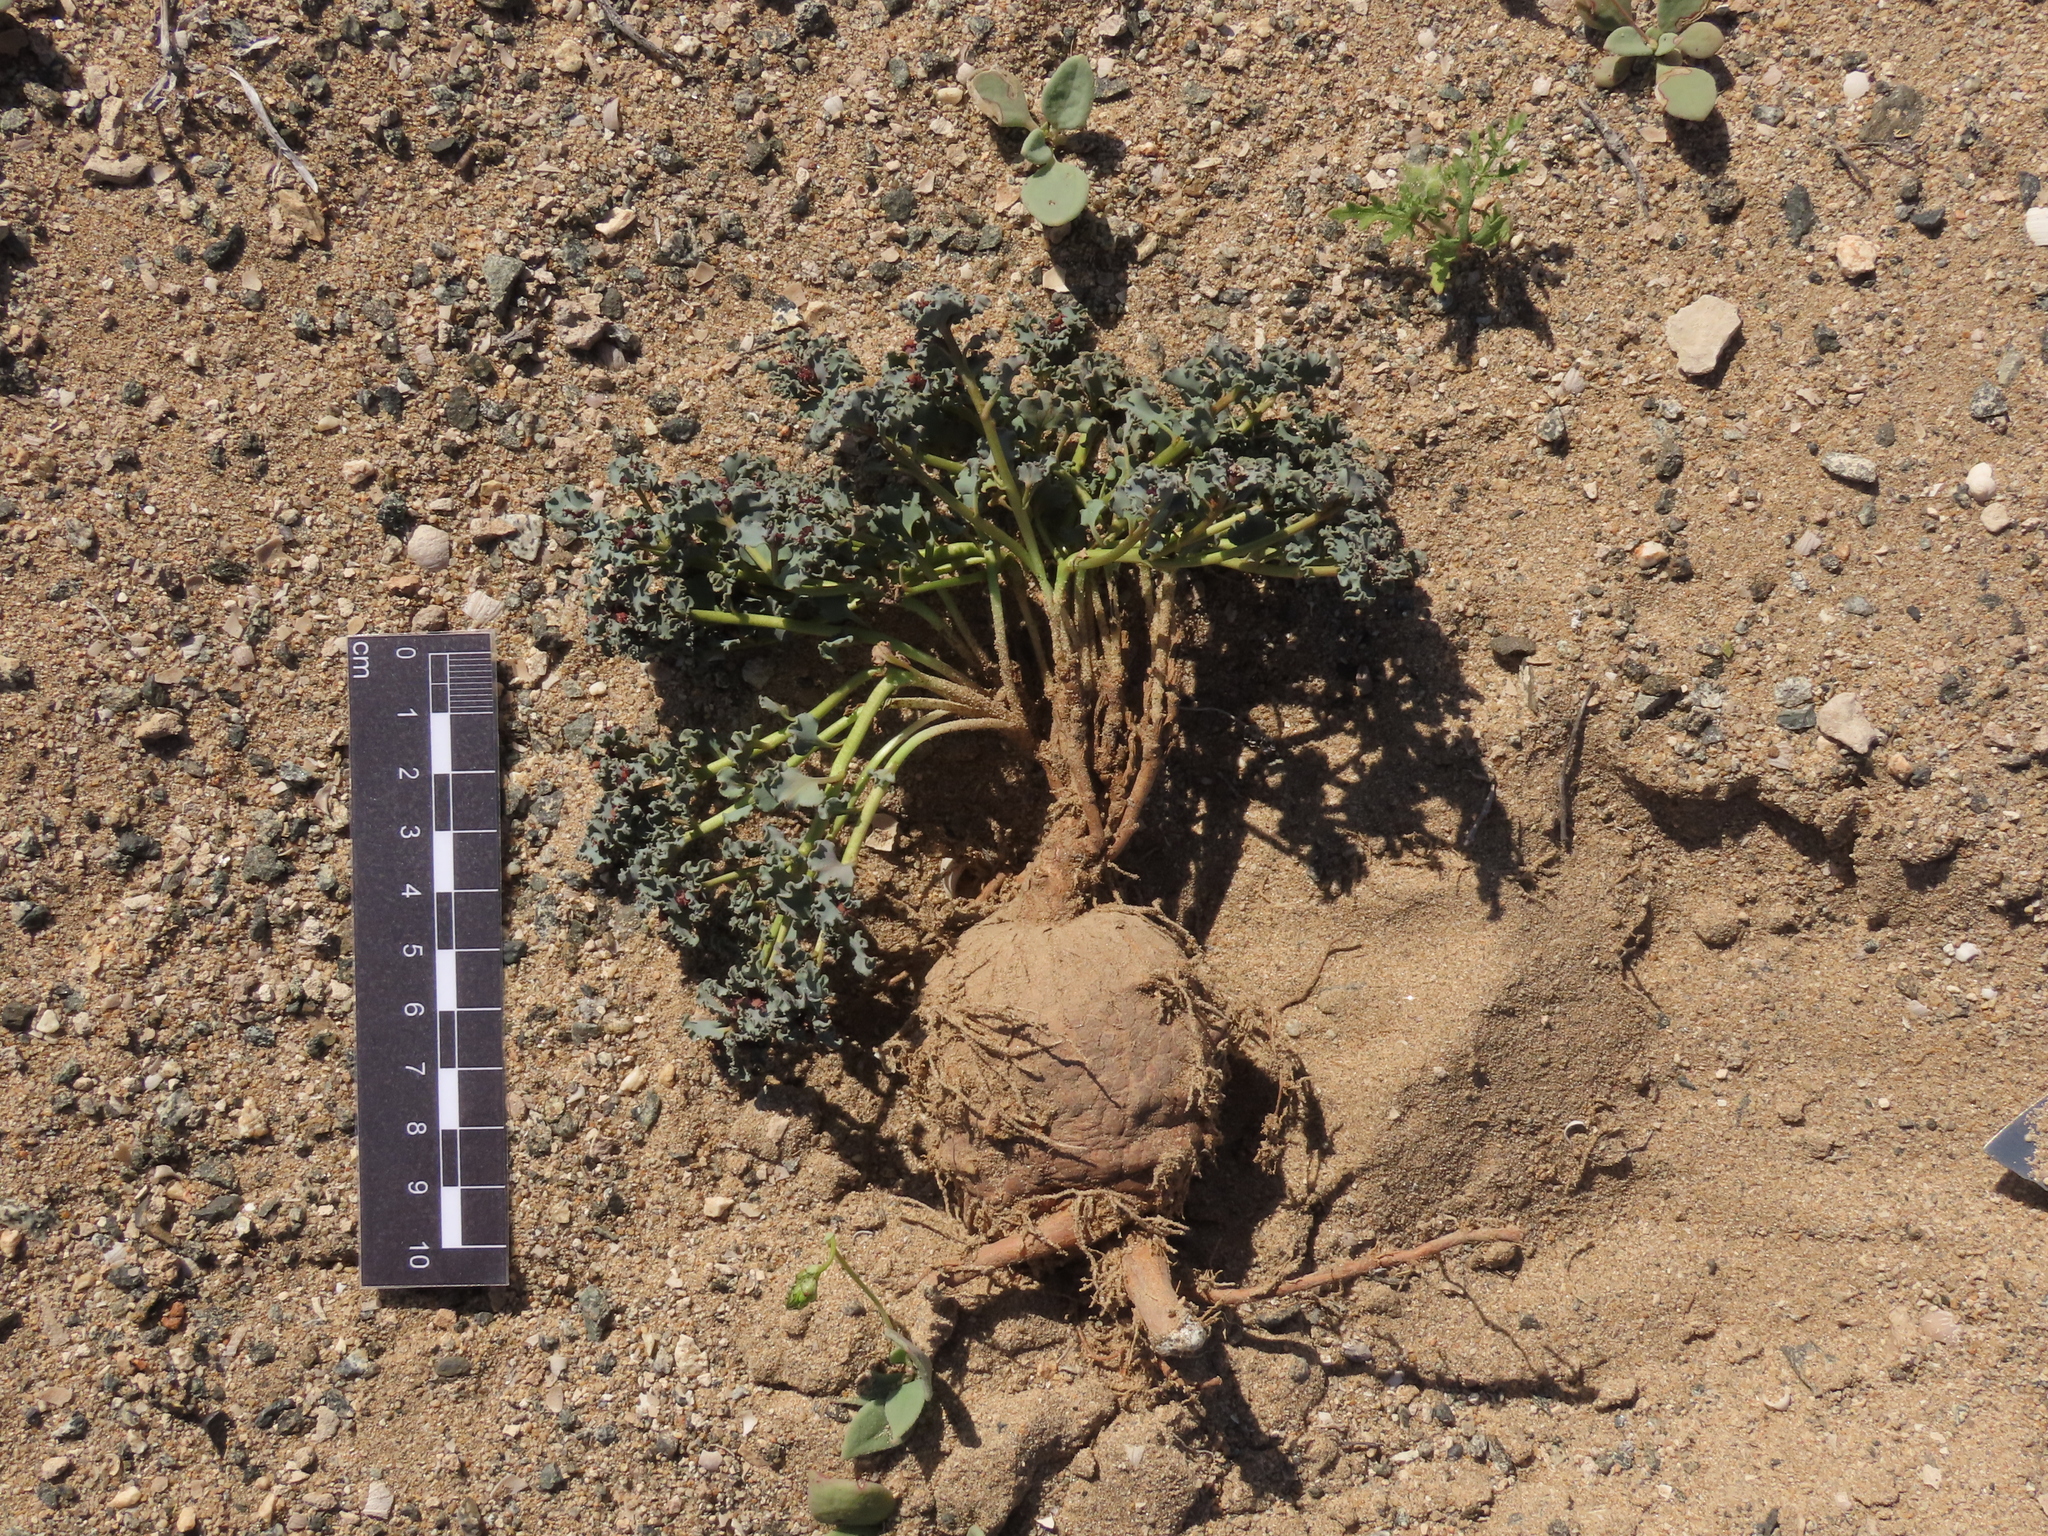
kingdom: Plantae
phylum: Tracheophyta
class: Magnoliopsida
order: Malpighiales
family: Euphorbiaceae
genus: Euphorbia
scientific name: Euphorbia copiapina
